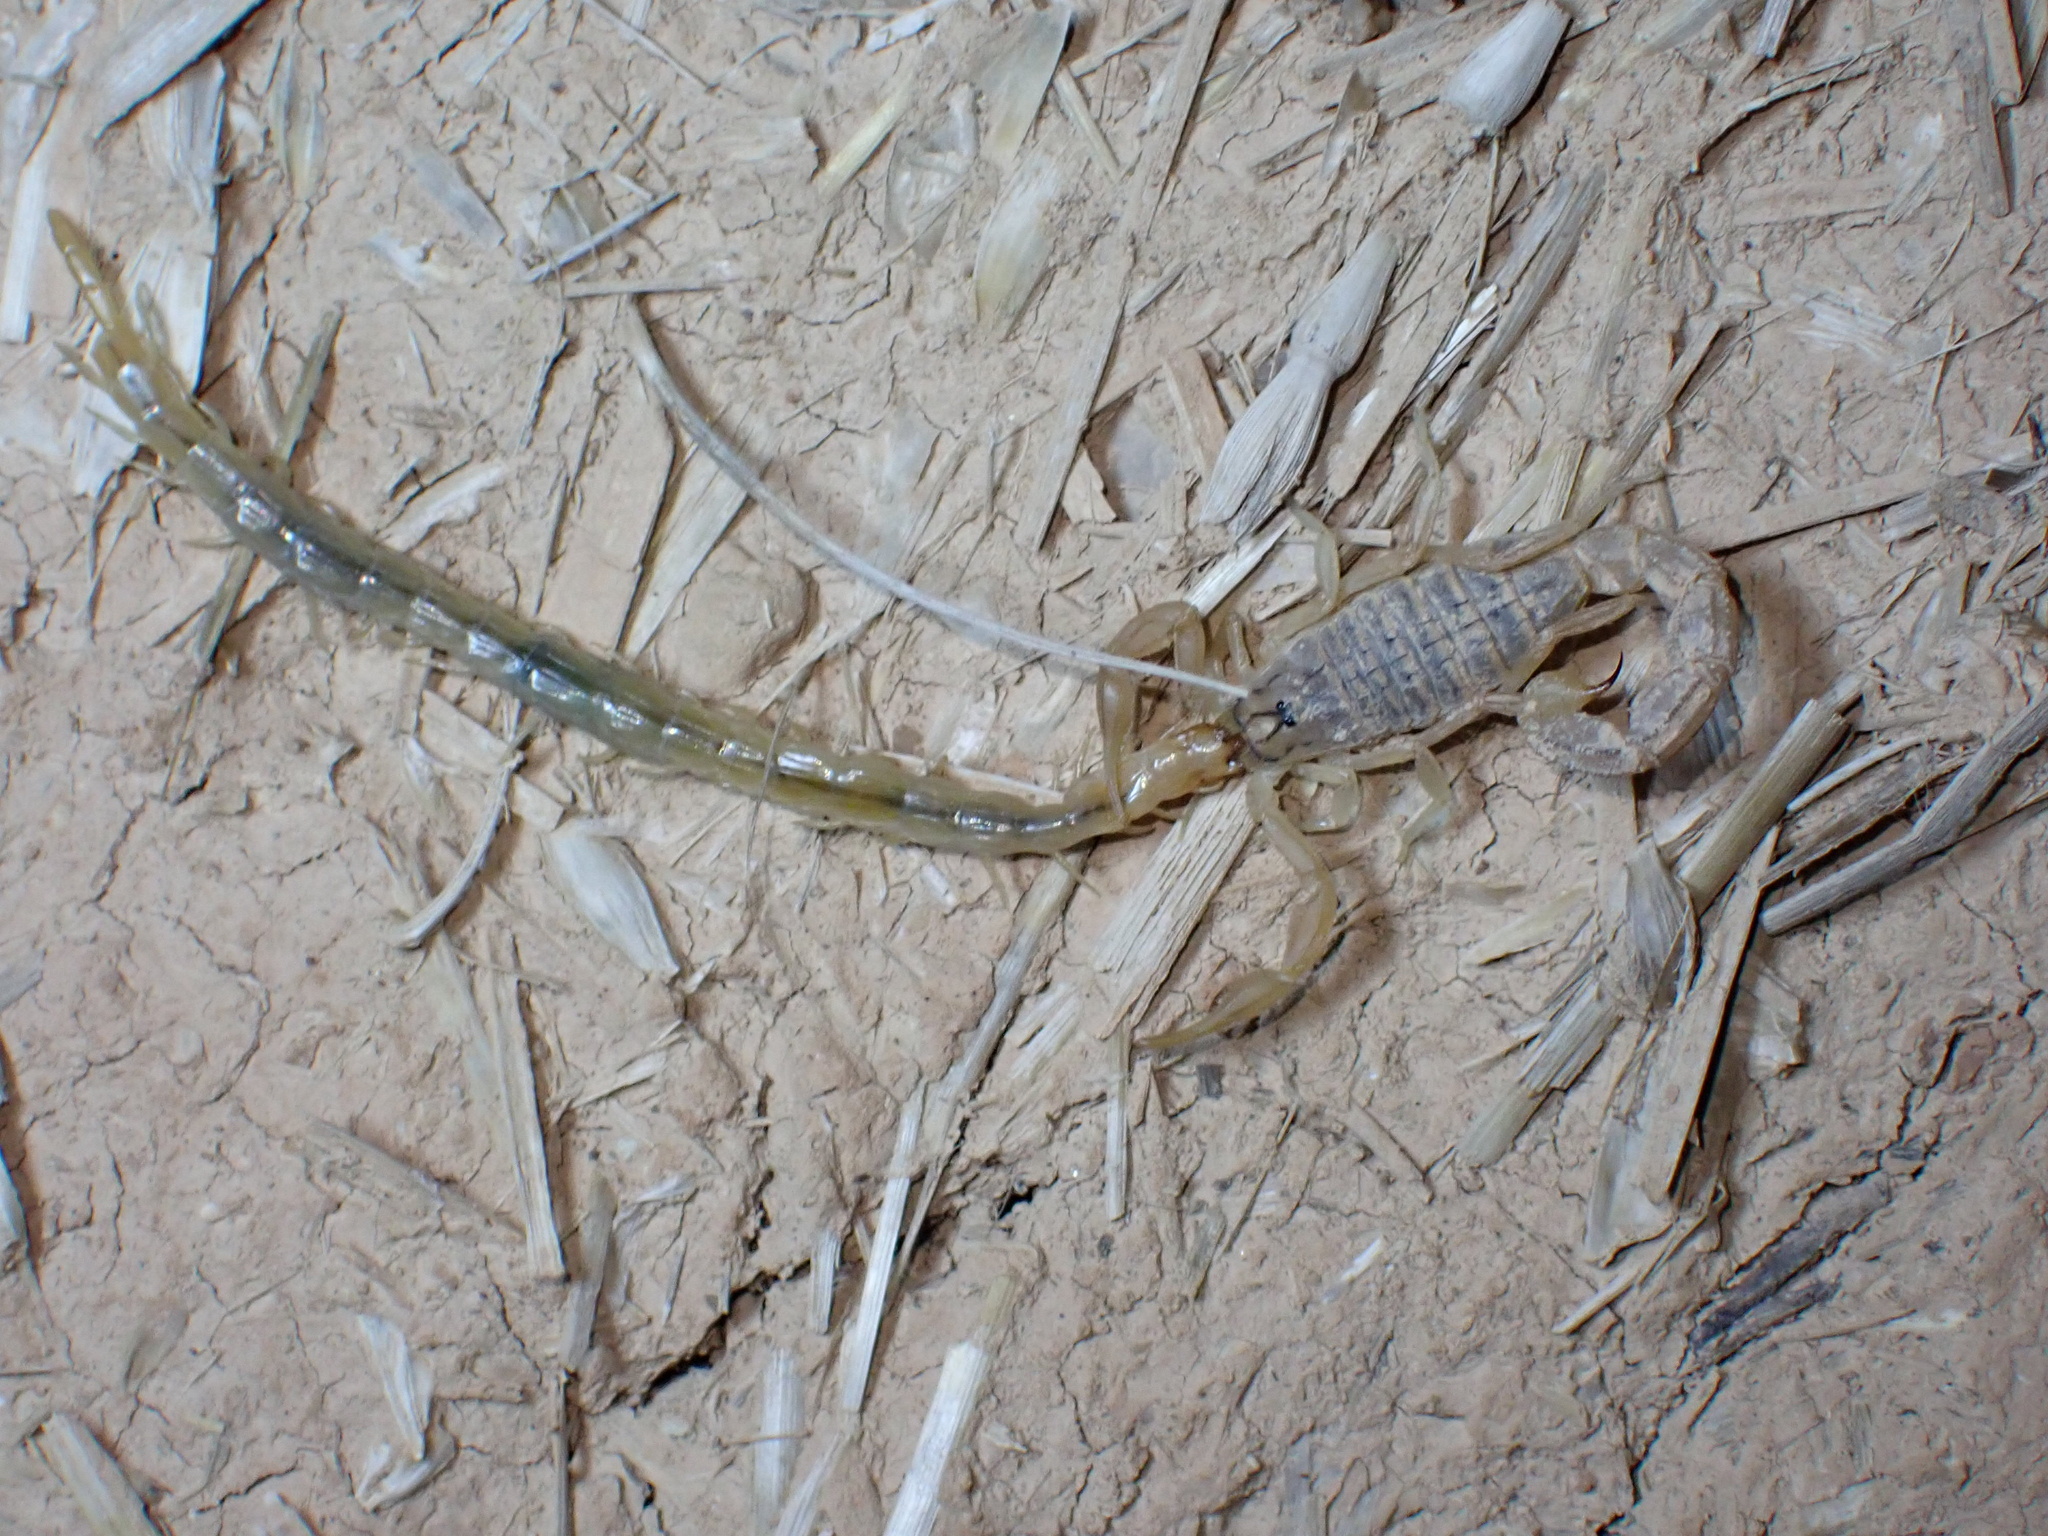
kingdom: Animalia
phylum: Arthropoda
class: Arachnida
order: Scorpiones
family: Buthidae
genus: Mesobuthus
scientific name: Mesobuthus crucittii
